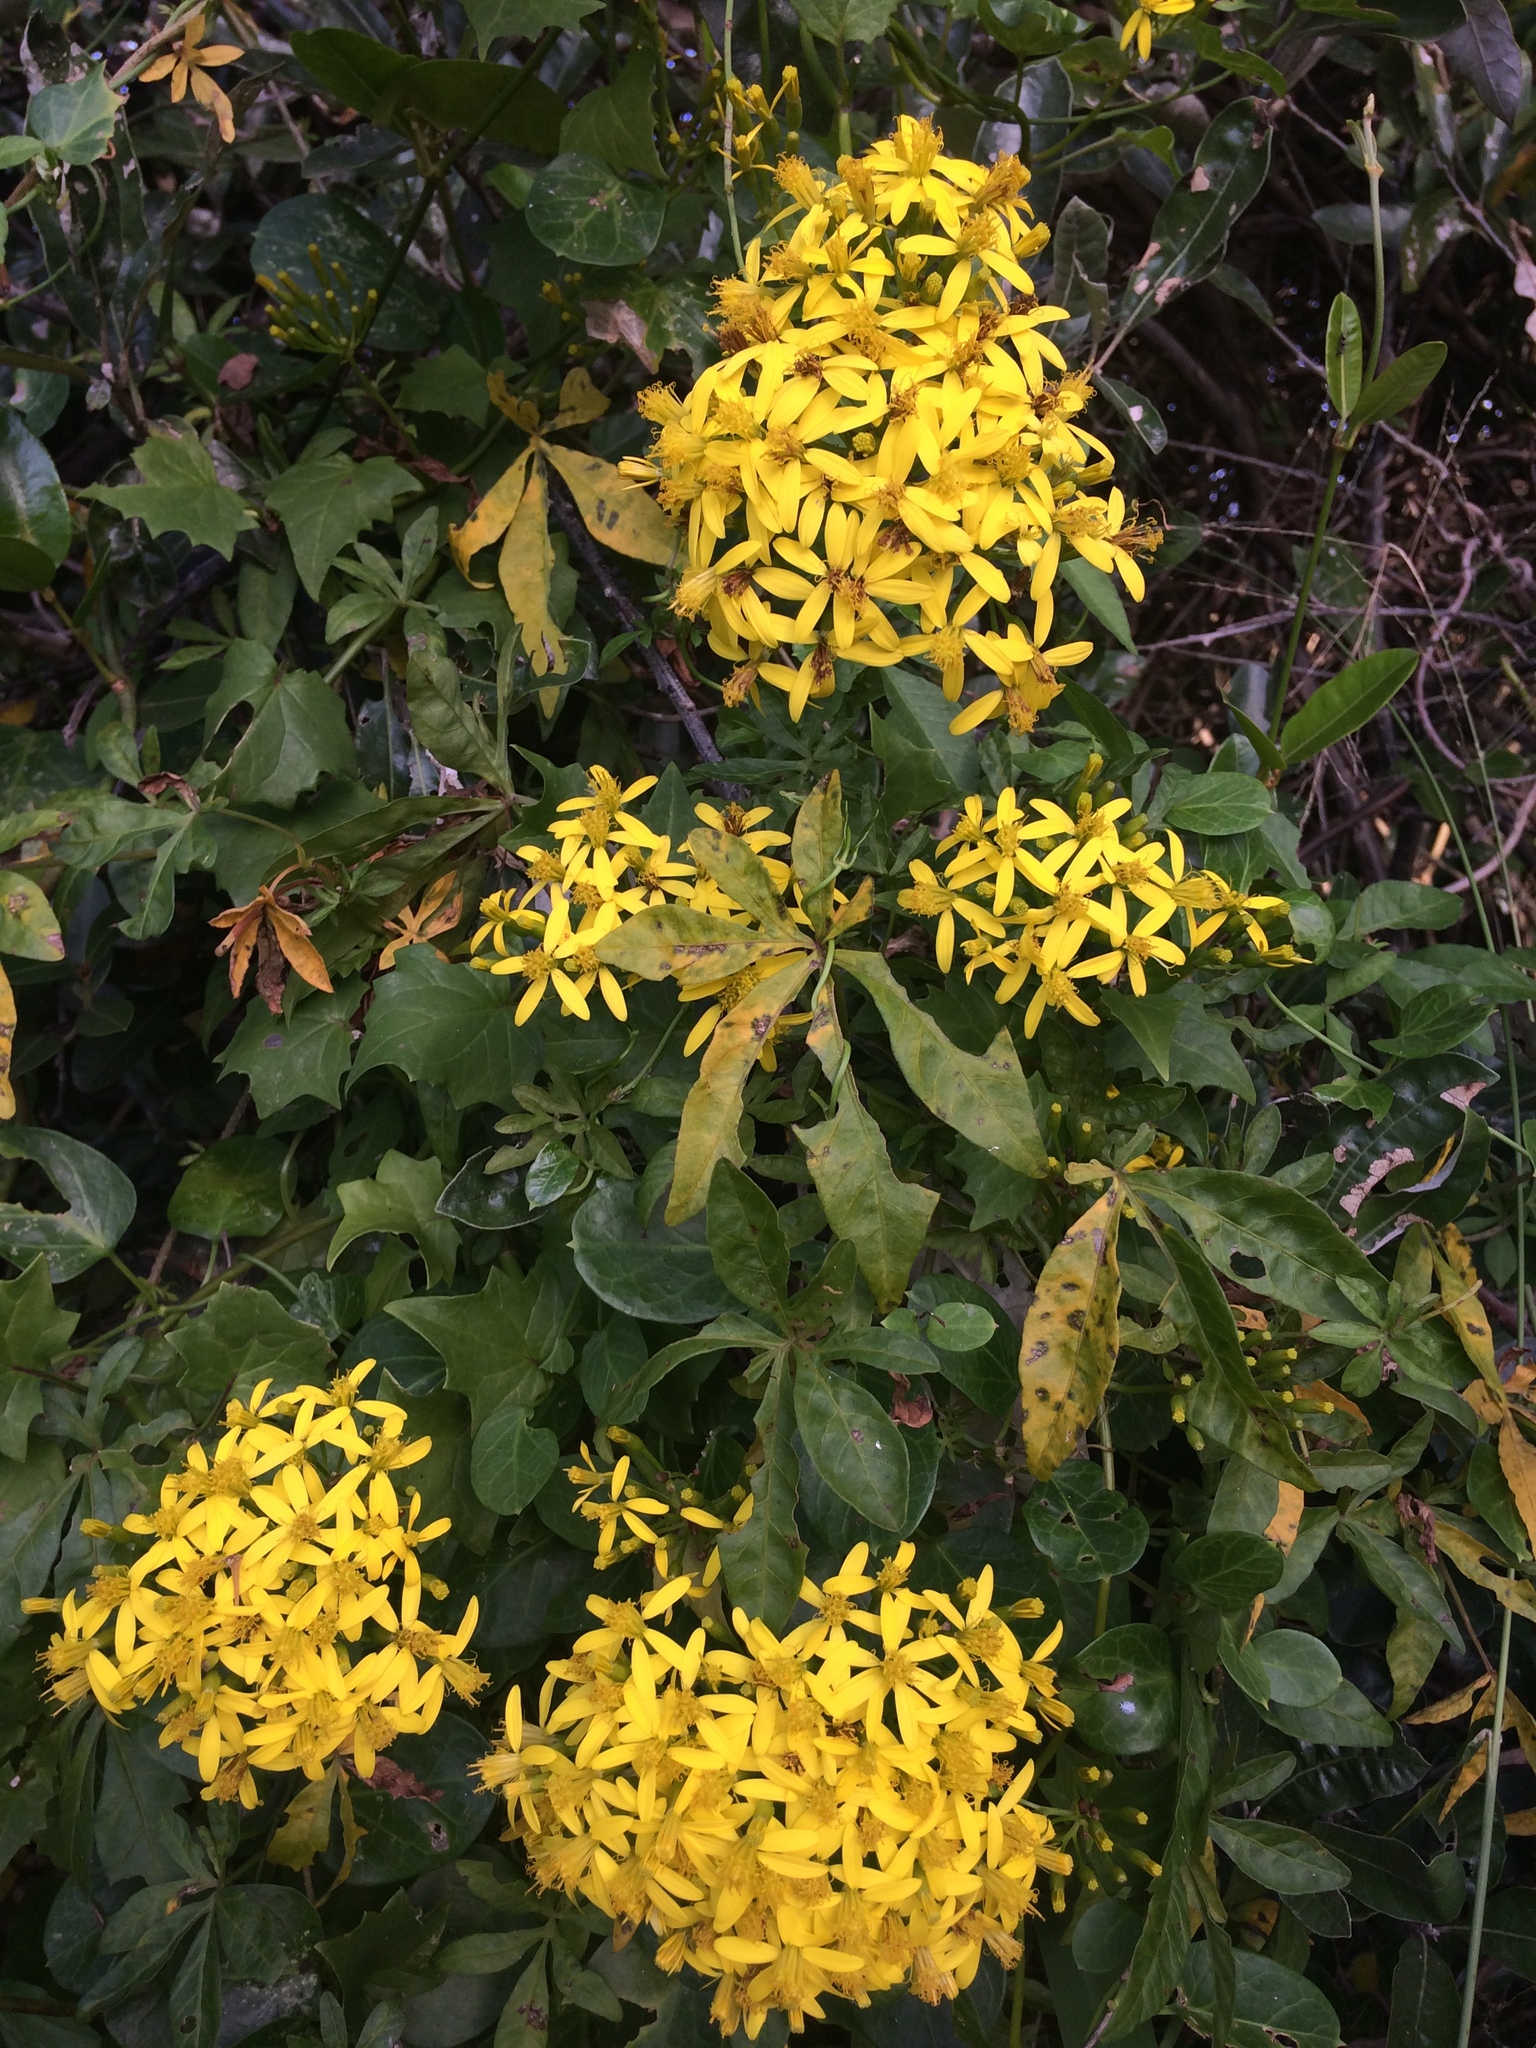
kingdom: Plantae
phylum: Tracheophyta
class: Magnoliopsida
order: Asterales
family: Asteraceae
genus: Senecio
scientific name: Senecio tamoides
